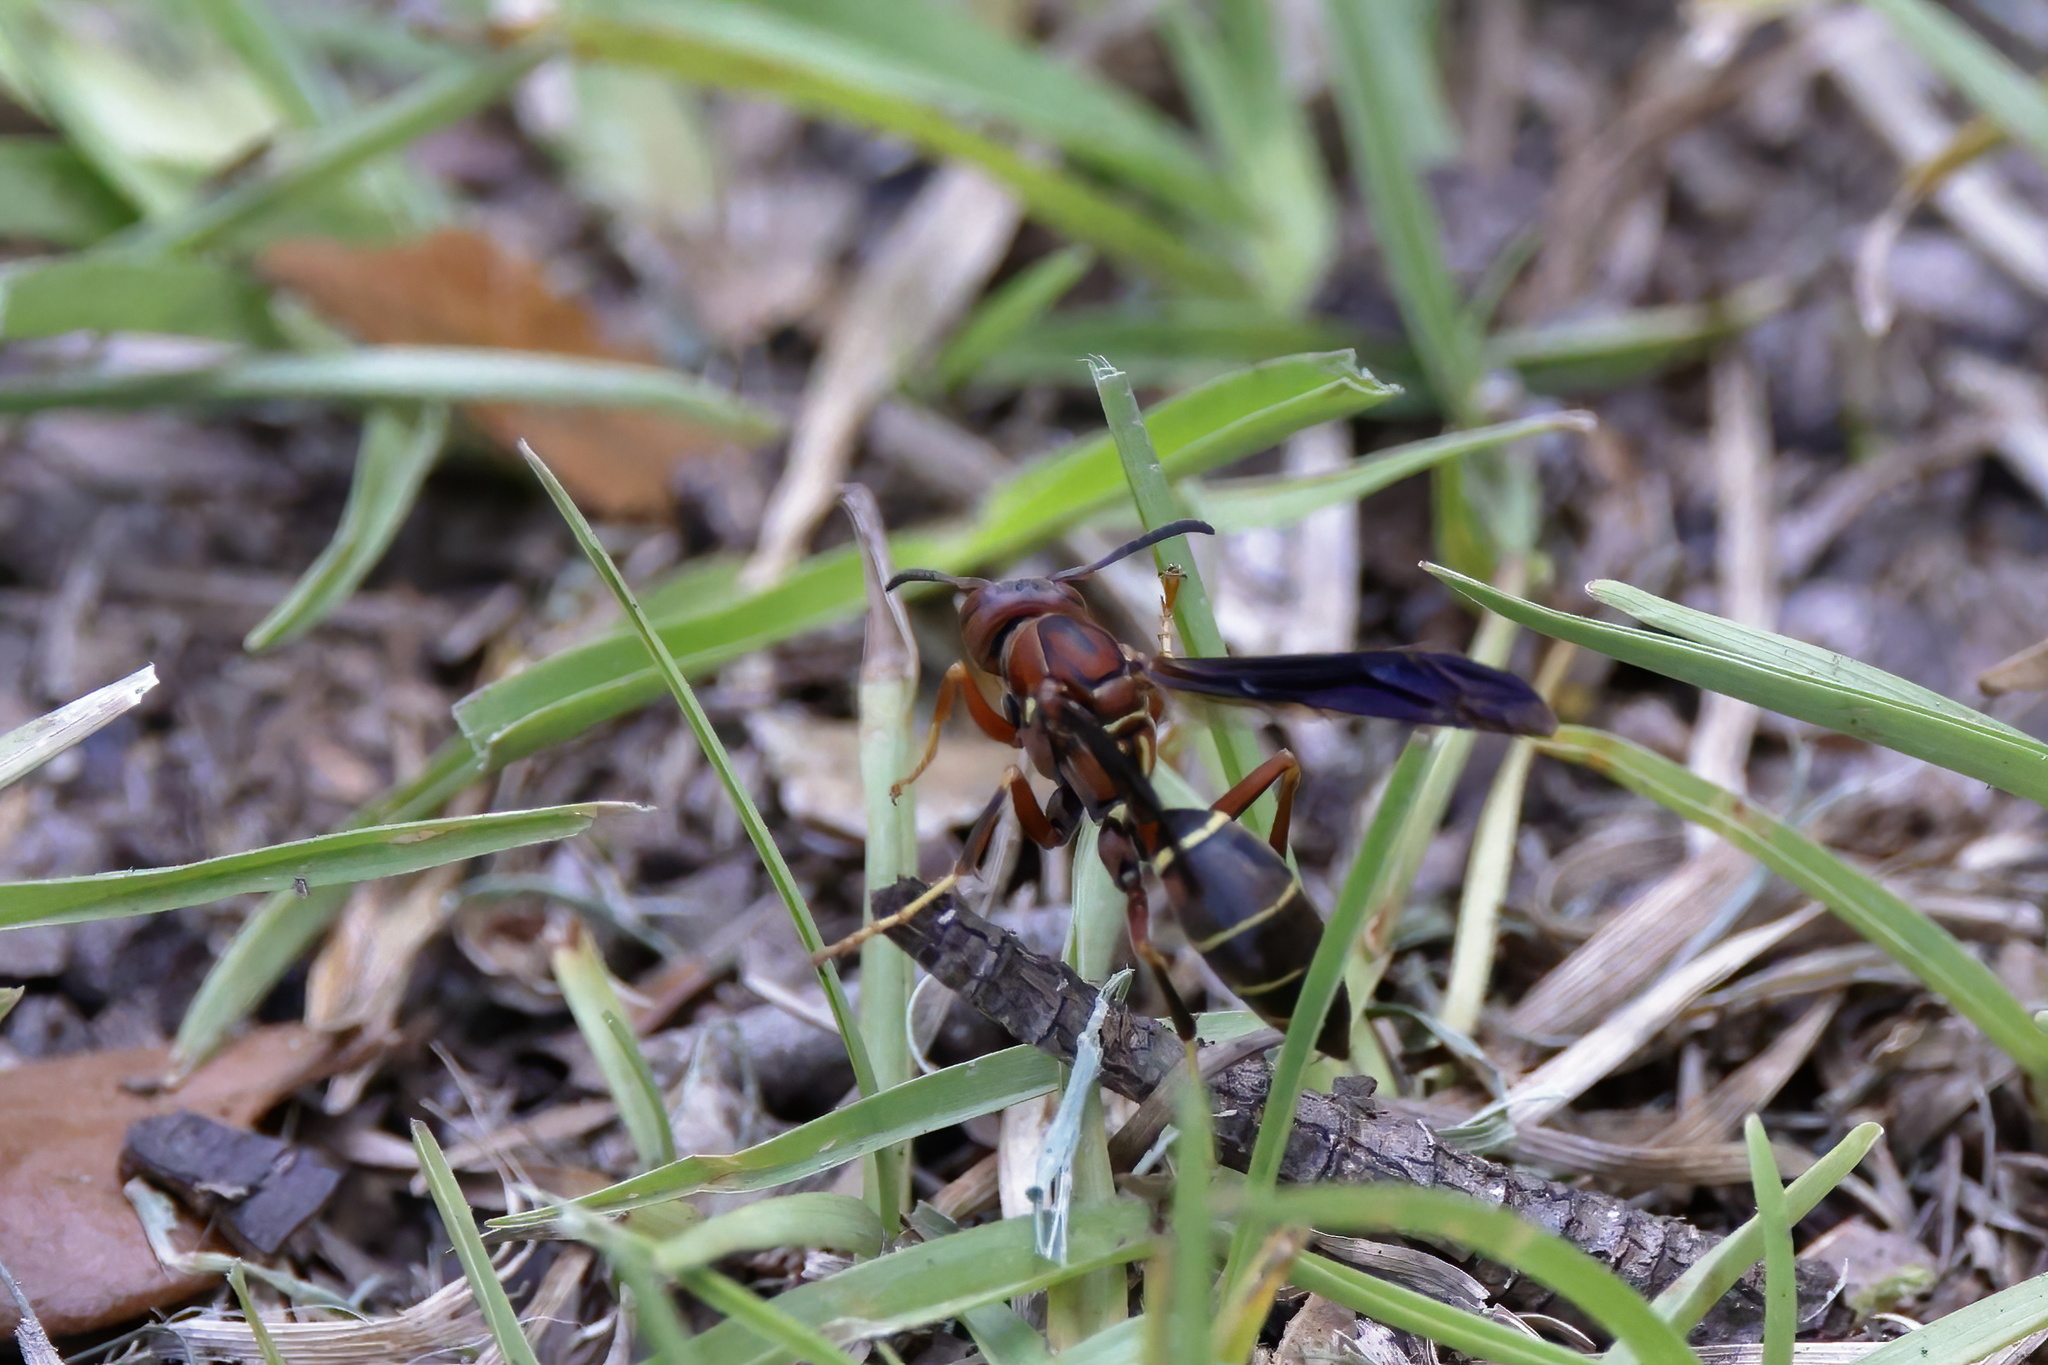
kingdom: Animalia
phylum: Arthropoda
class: Insecta
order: Hymenoptera
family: Eumenidae
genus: Polistes
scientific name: Polistes metricus
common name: Metric paper wasp
